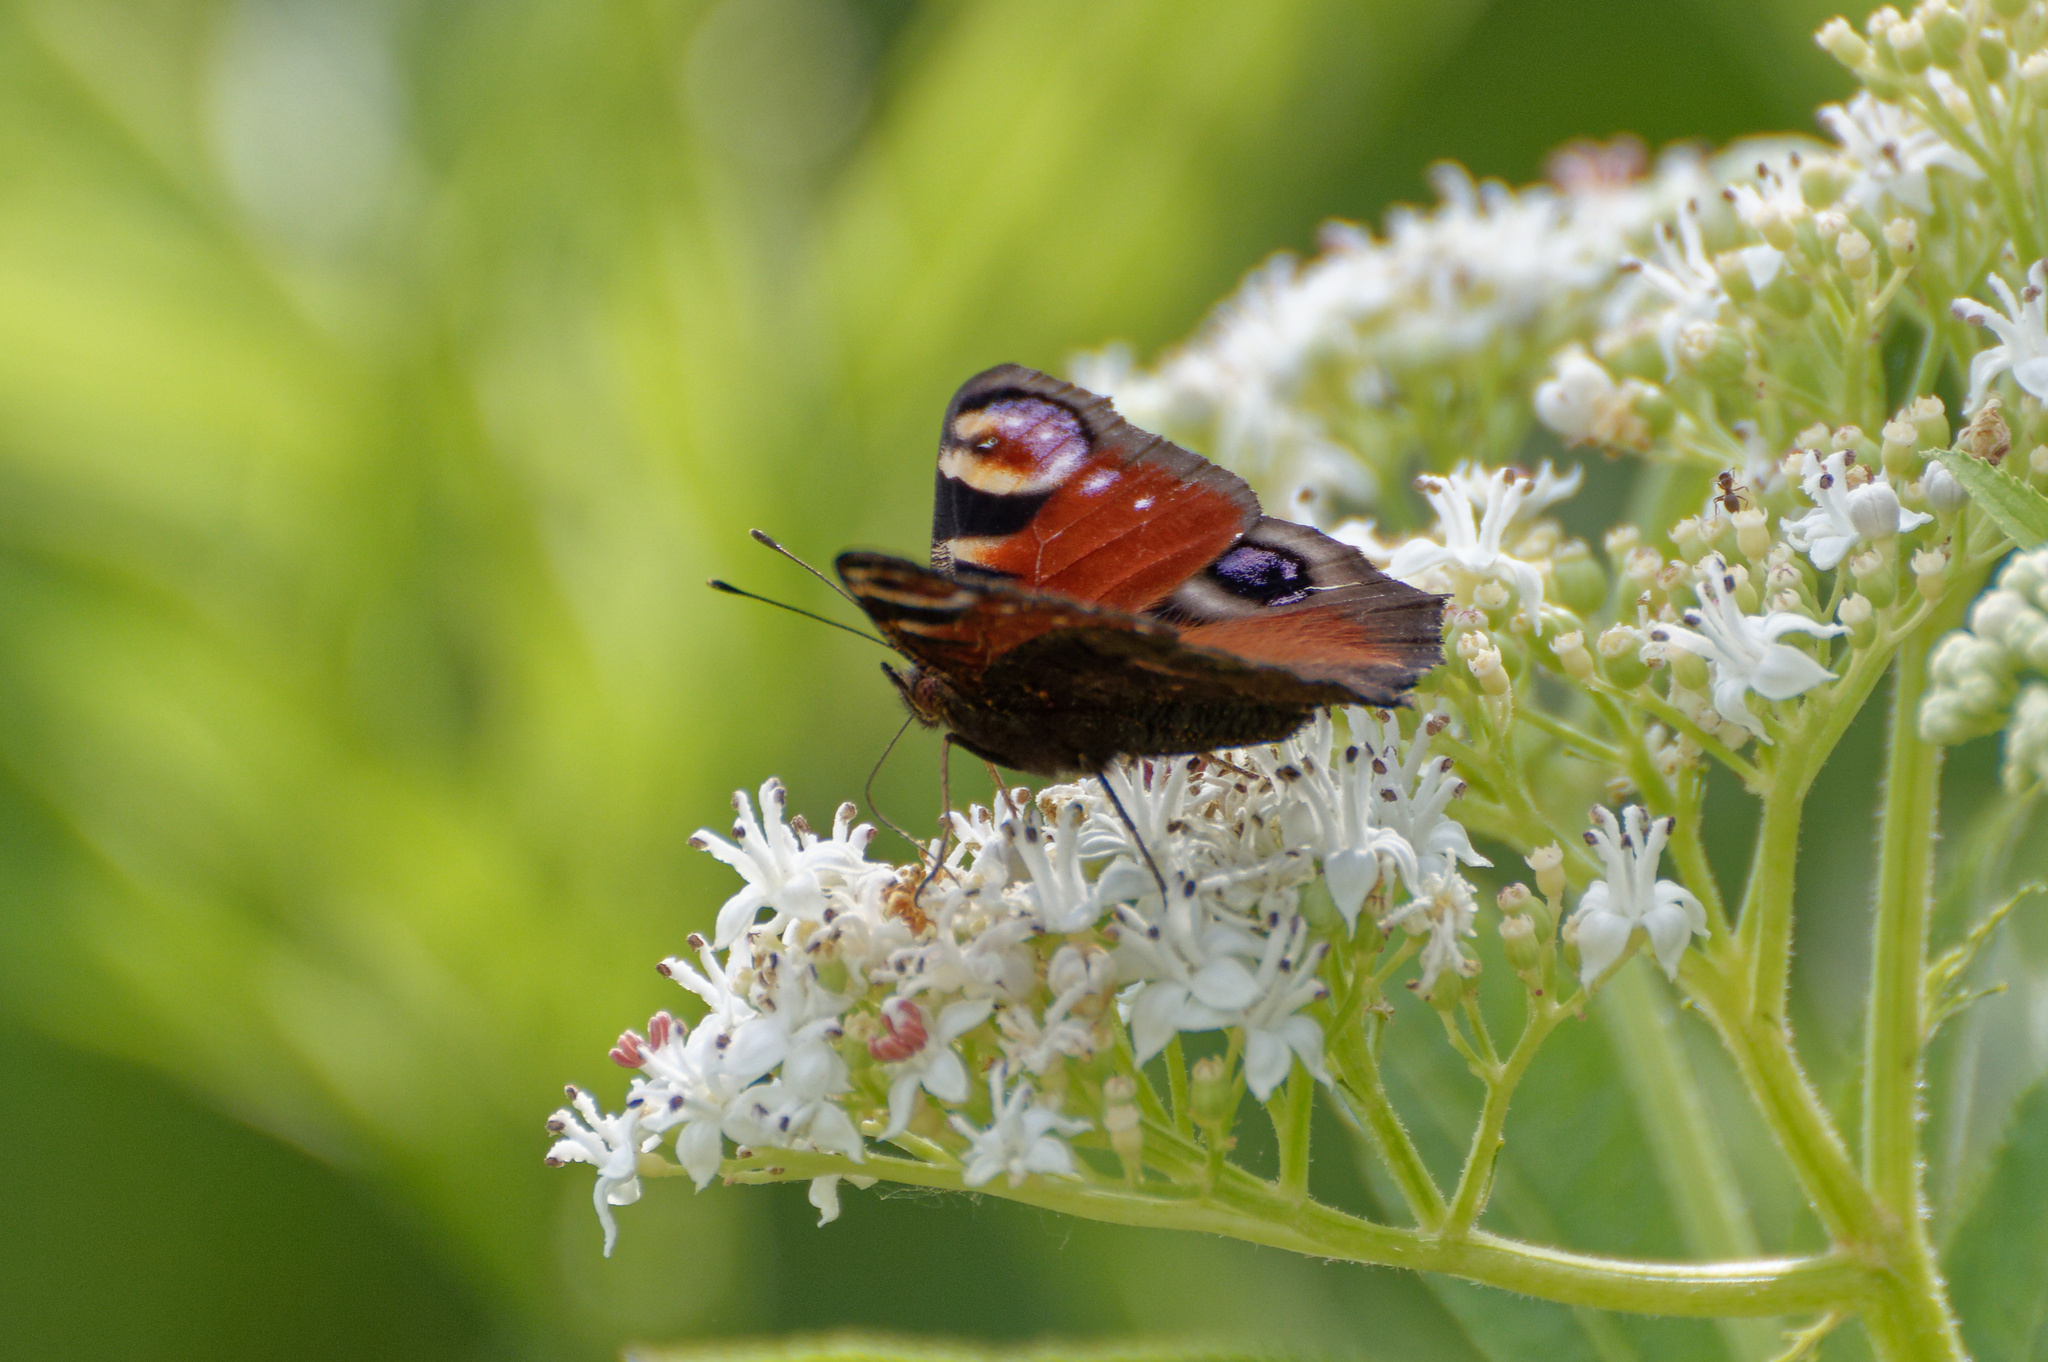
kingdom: Animalia
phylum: Arthropoda
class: Insecta
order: Lepidoptera
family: Nymphalidae
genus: Aglais
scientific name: Aglais io
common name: Peacock
